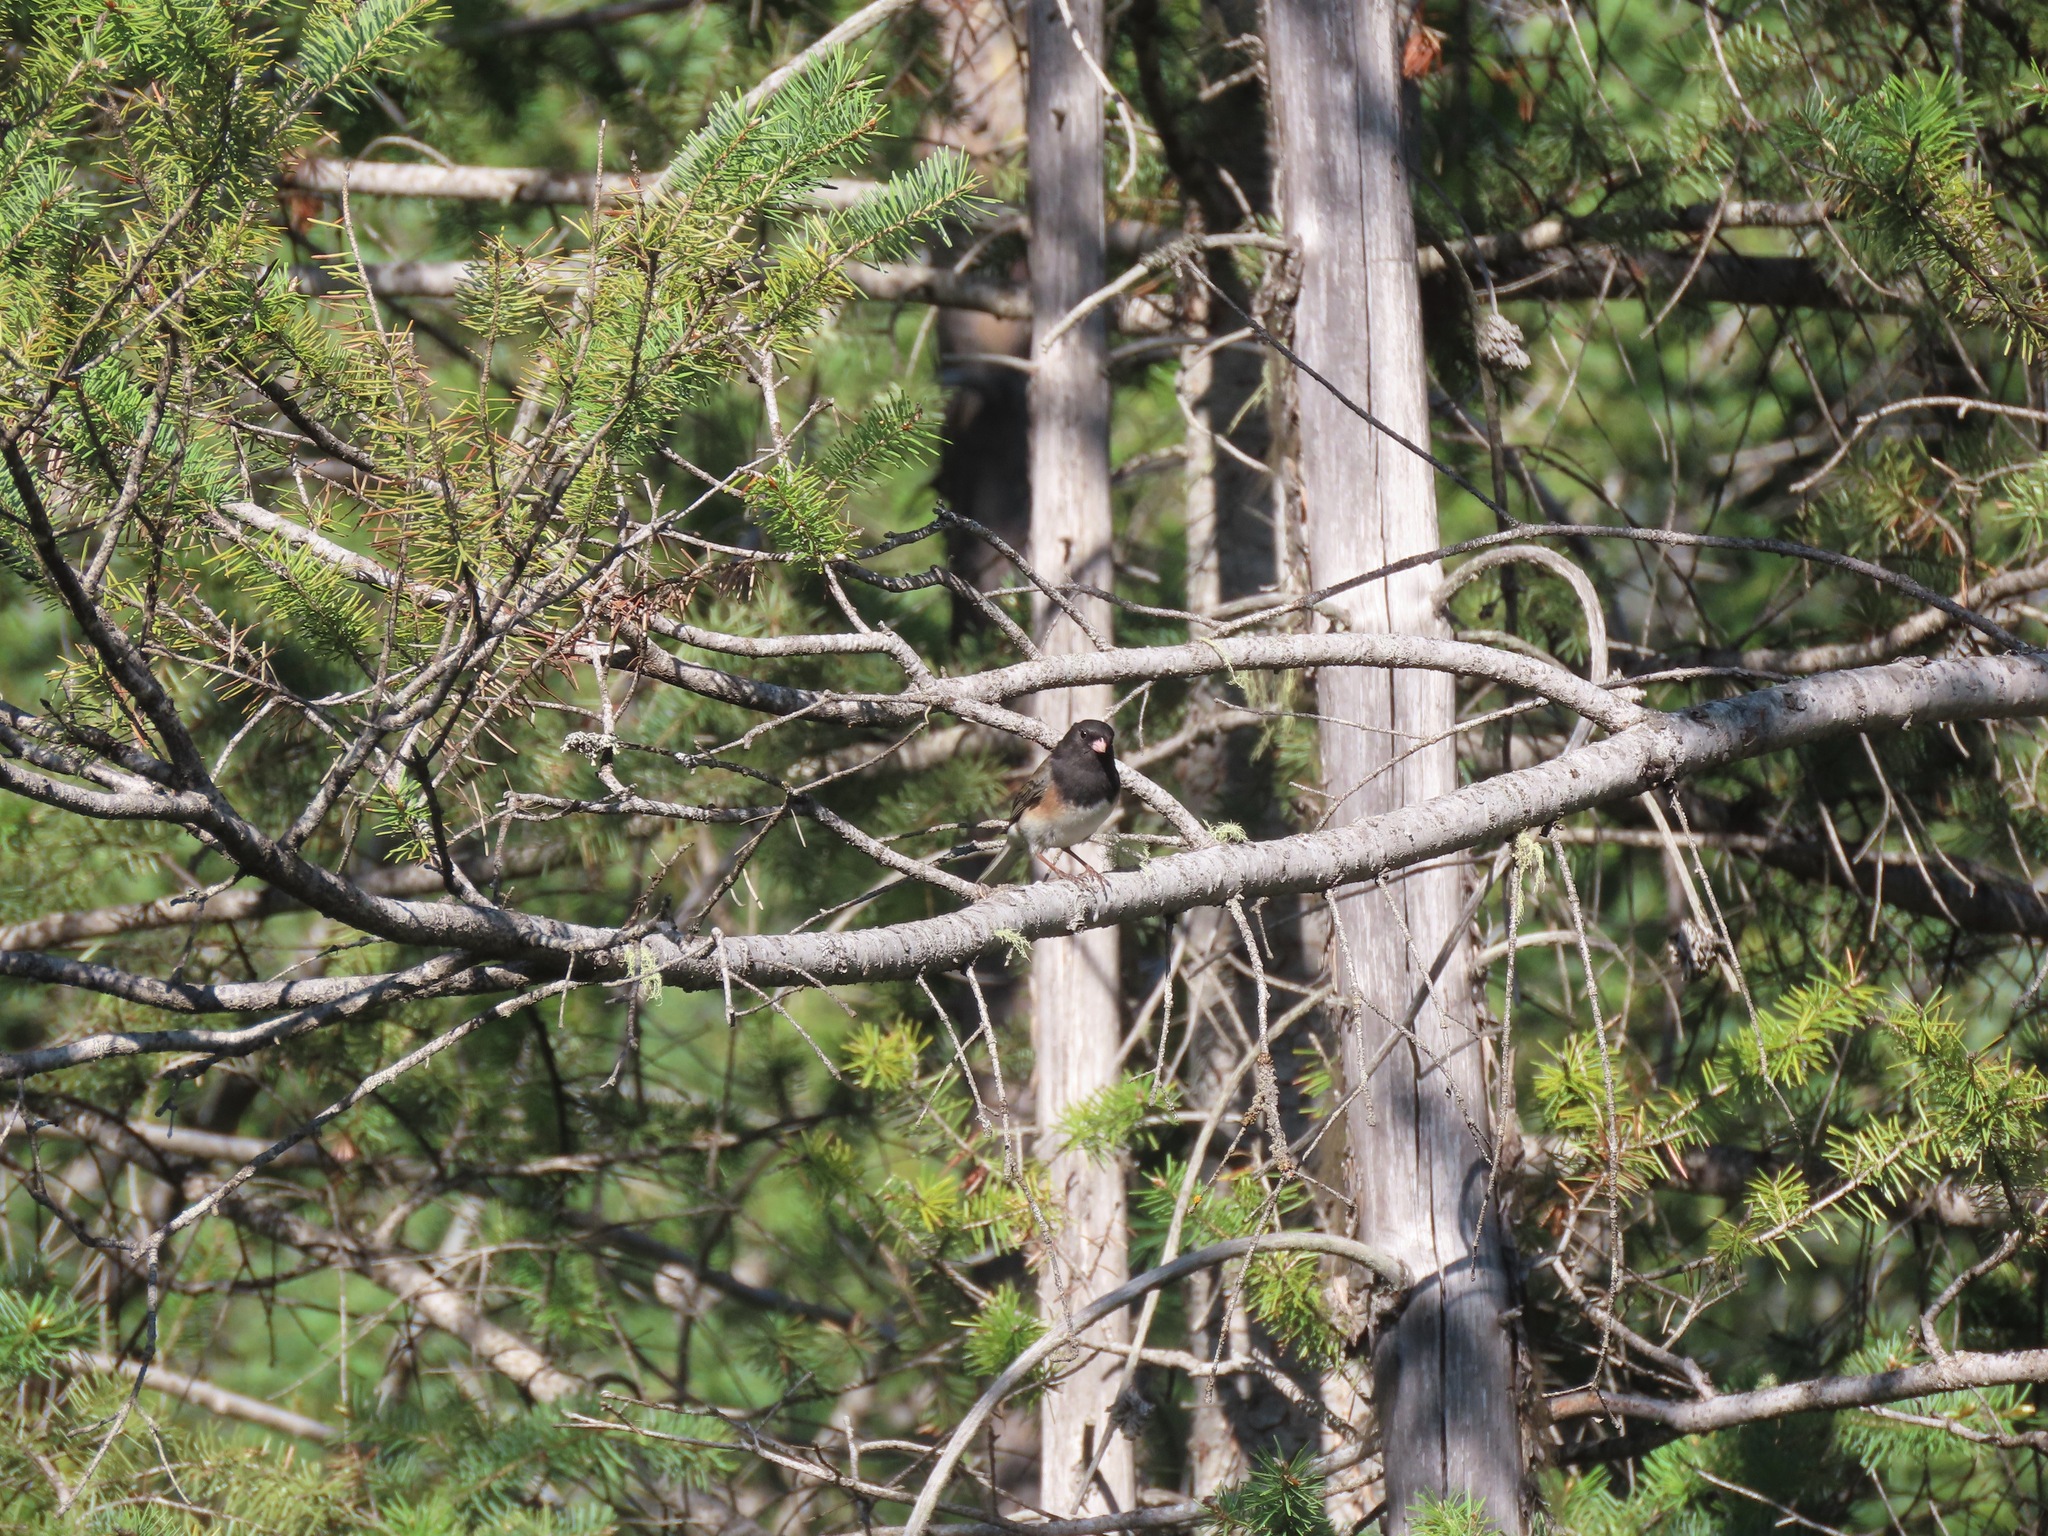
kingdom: Animalia
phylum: Chordata
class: Aves
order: Passeriformes
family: Passerellidae
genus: Junco
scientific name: Junco hyemalis
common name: Dark-eyed junco
